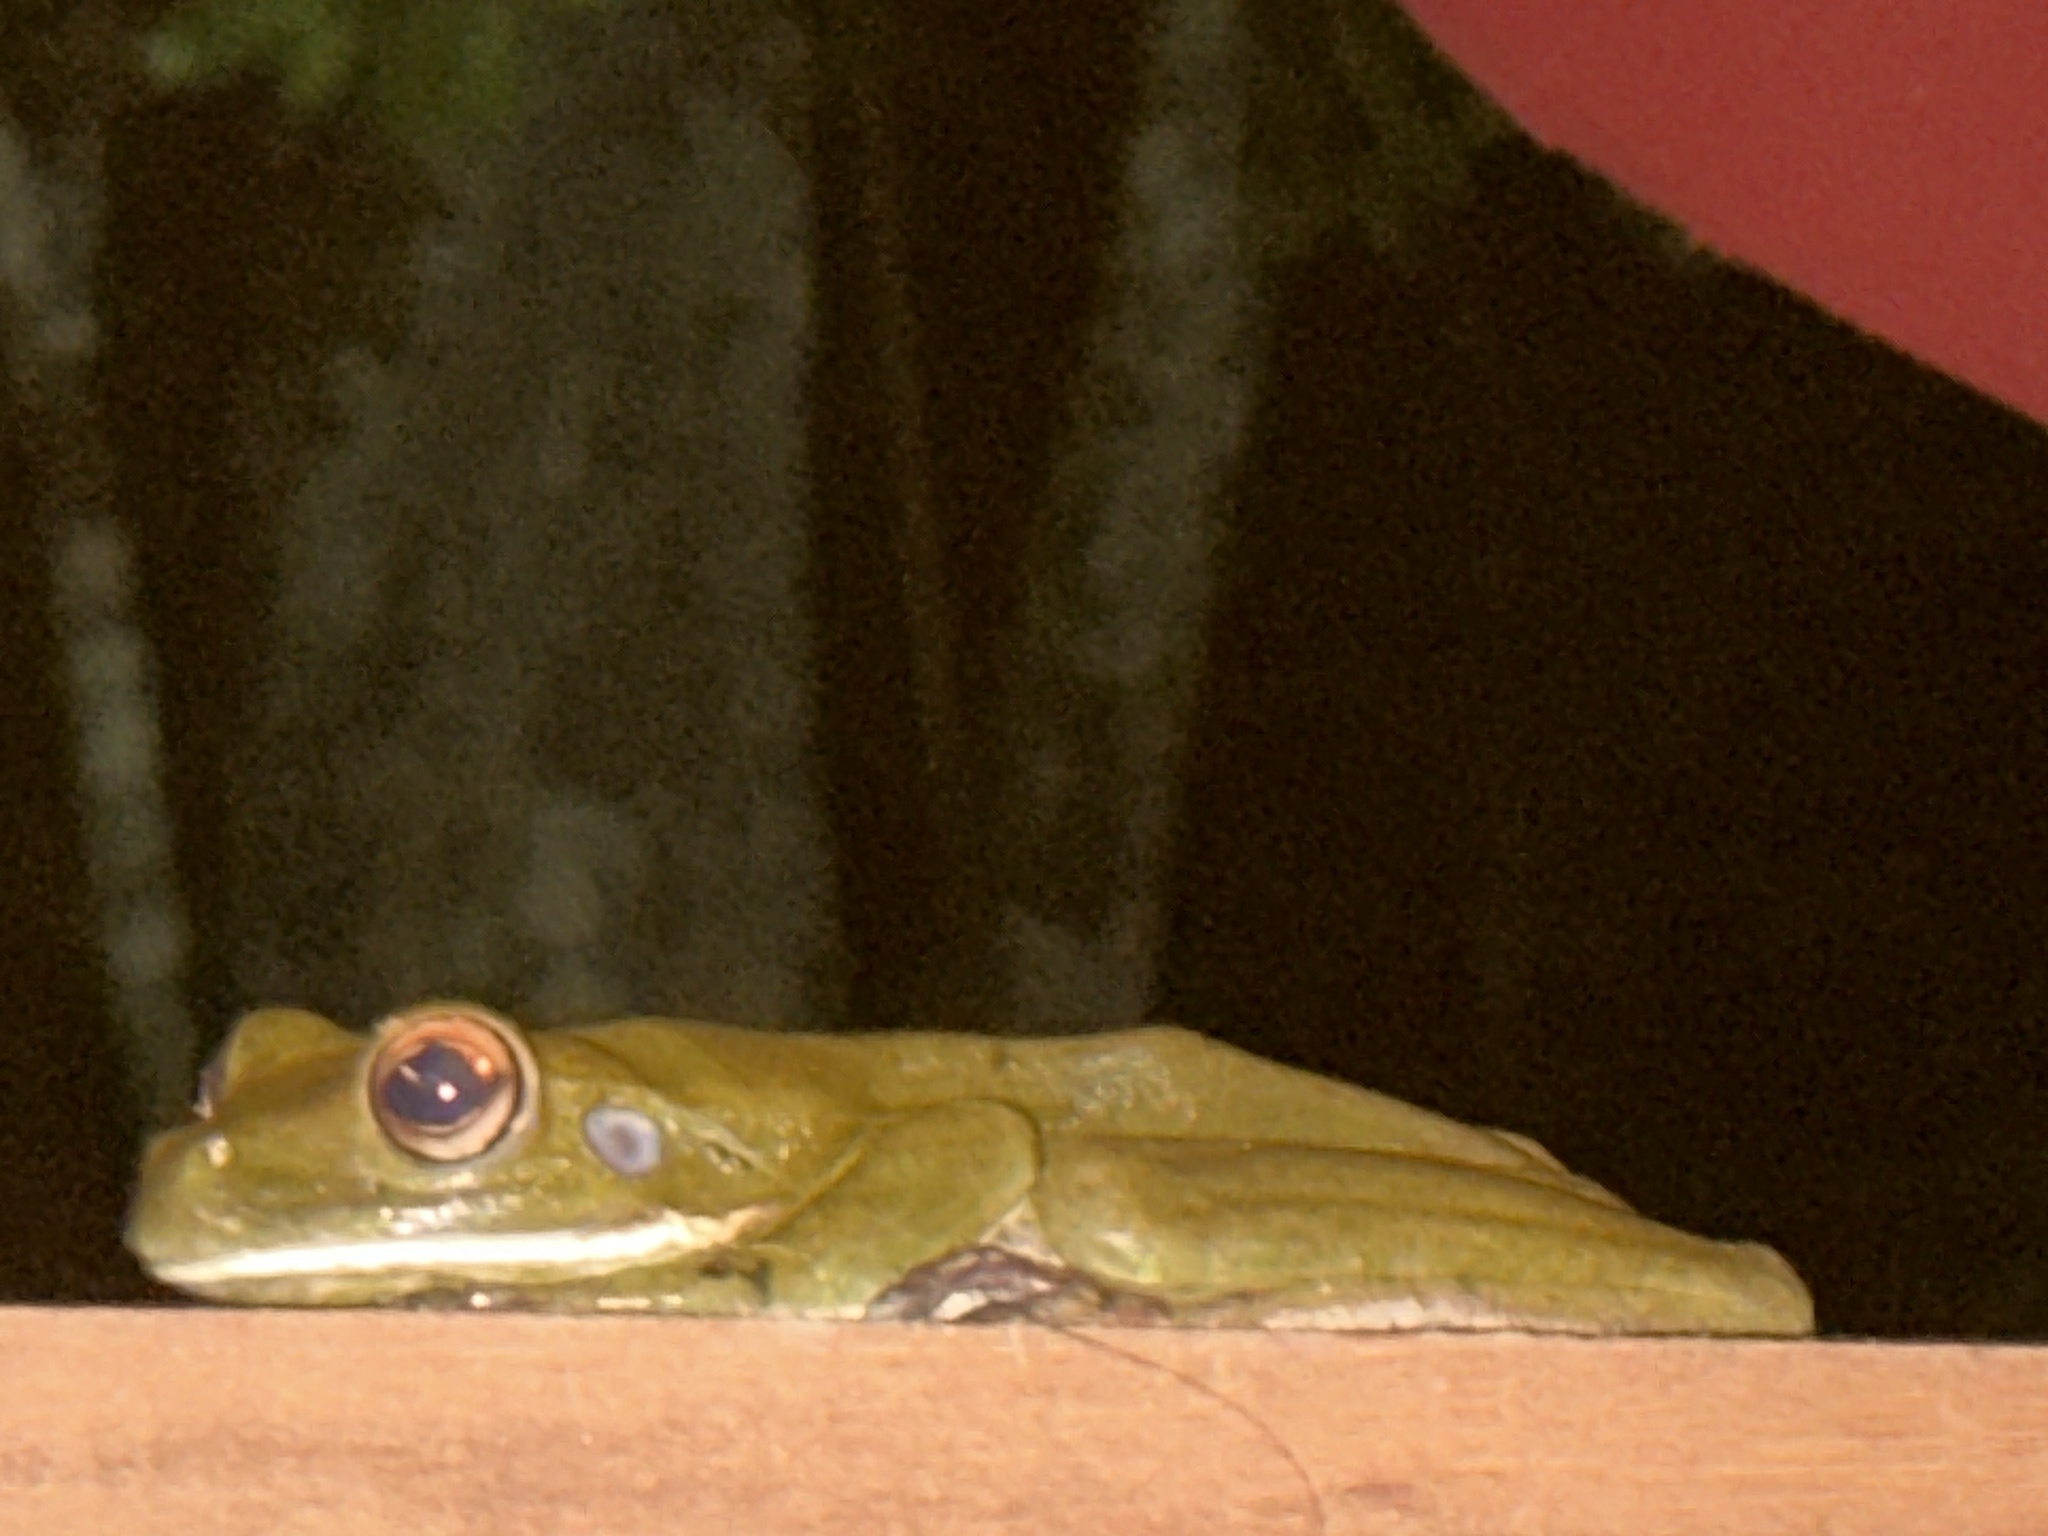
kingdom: Animalia
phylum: Chordata
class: Amphibia
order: Anura
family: Pelodryadidae
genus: Nyctimystes
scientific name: Nyctimystes infrafrenatus
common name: Australian giant treefrog
